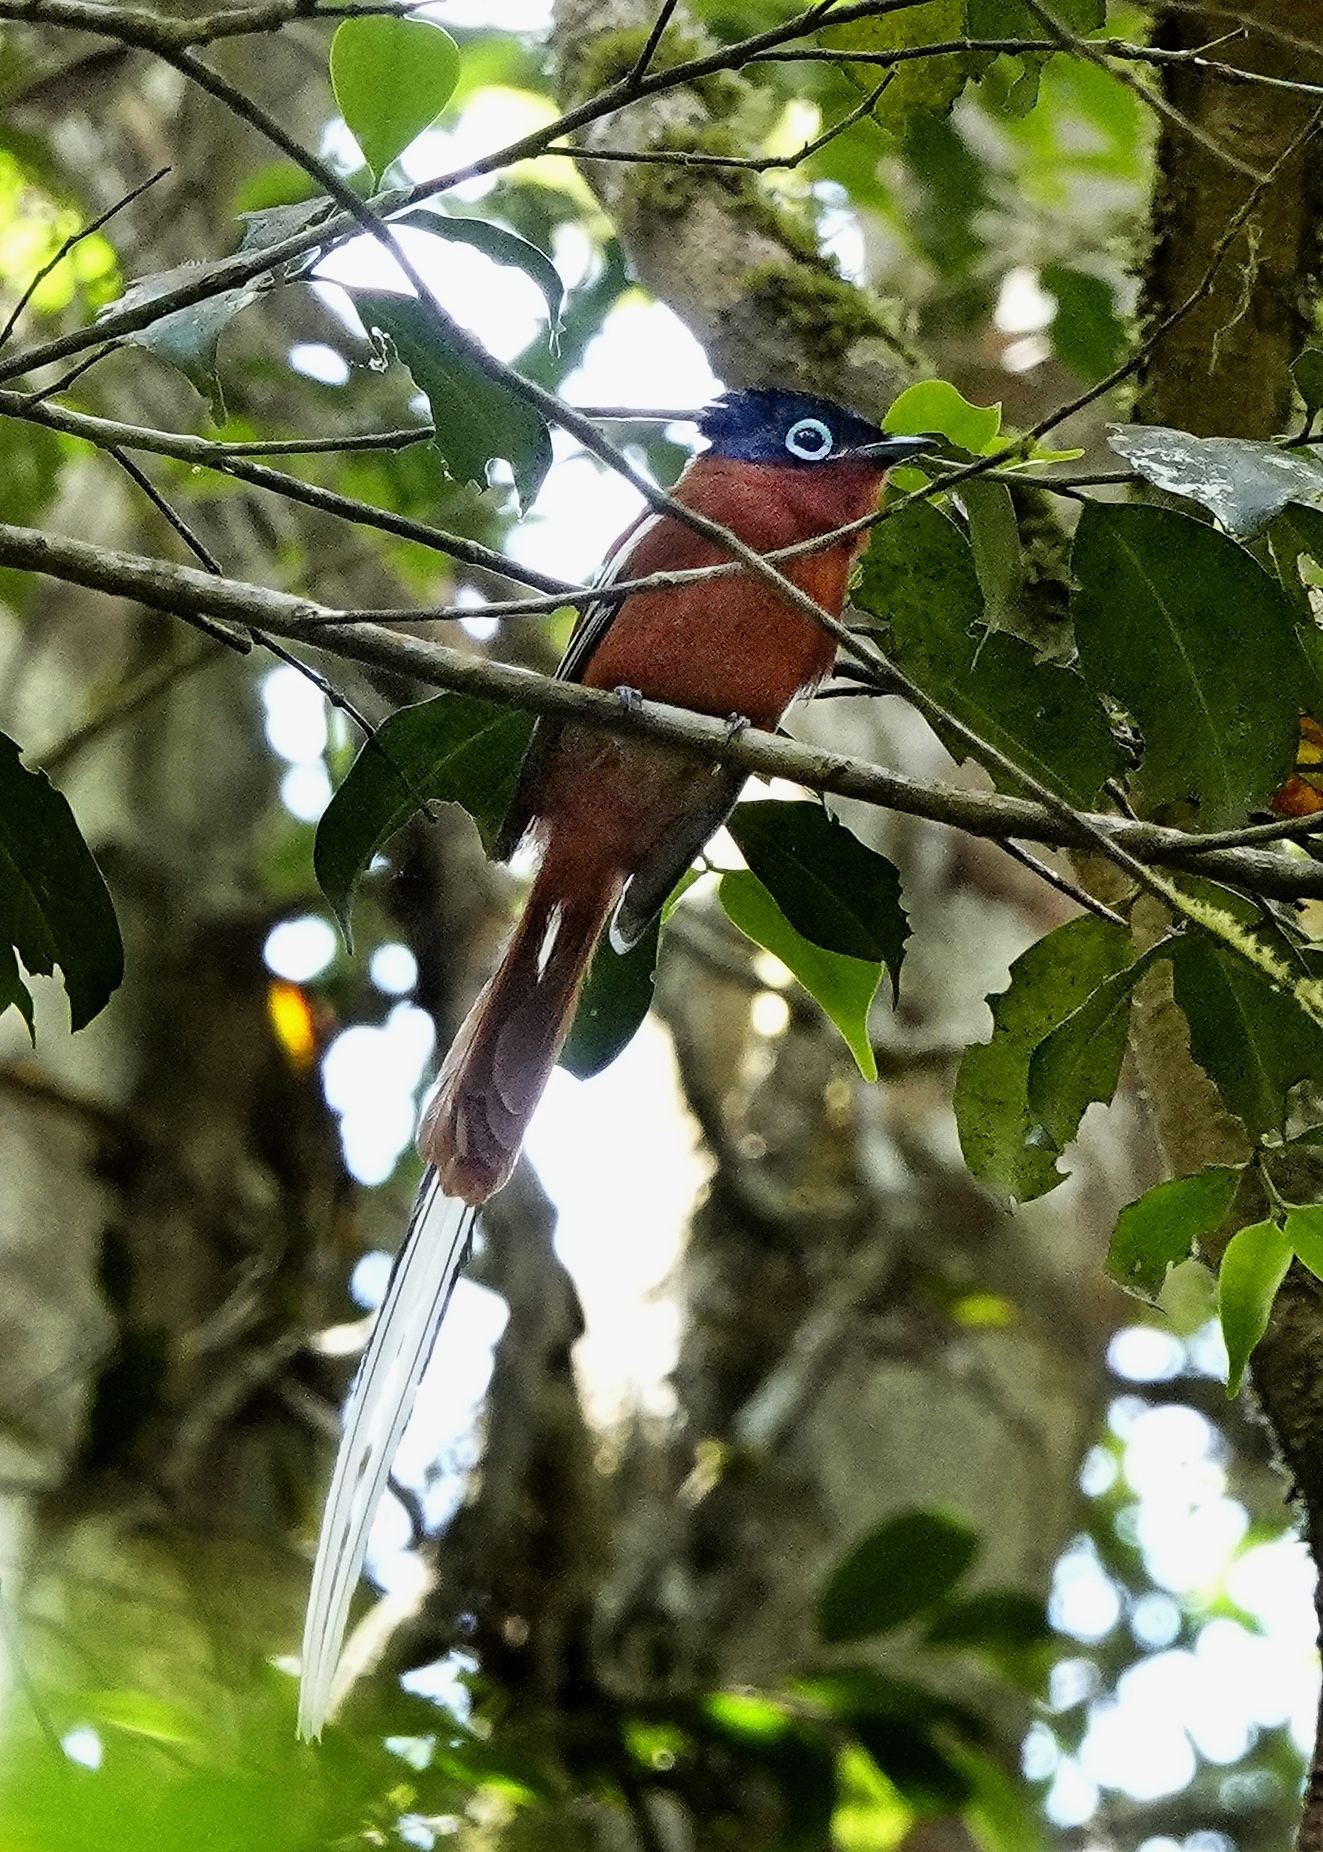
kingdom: Animalia
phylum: Chordata
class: Aves
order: Passeriformes
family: Monarchidae
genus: Terpsiphone
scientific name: Terpsiphone mutata
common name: Malagasy paradise flycatcher
